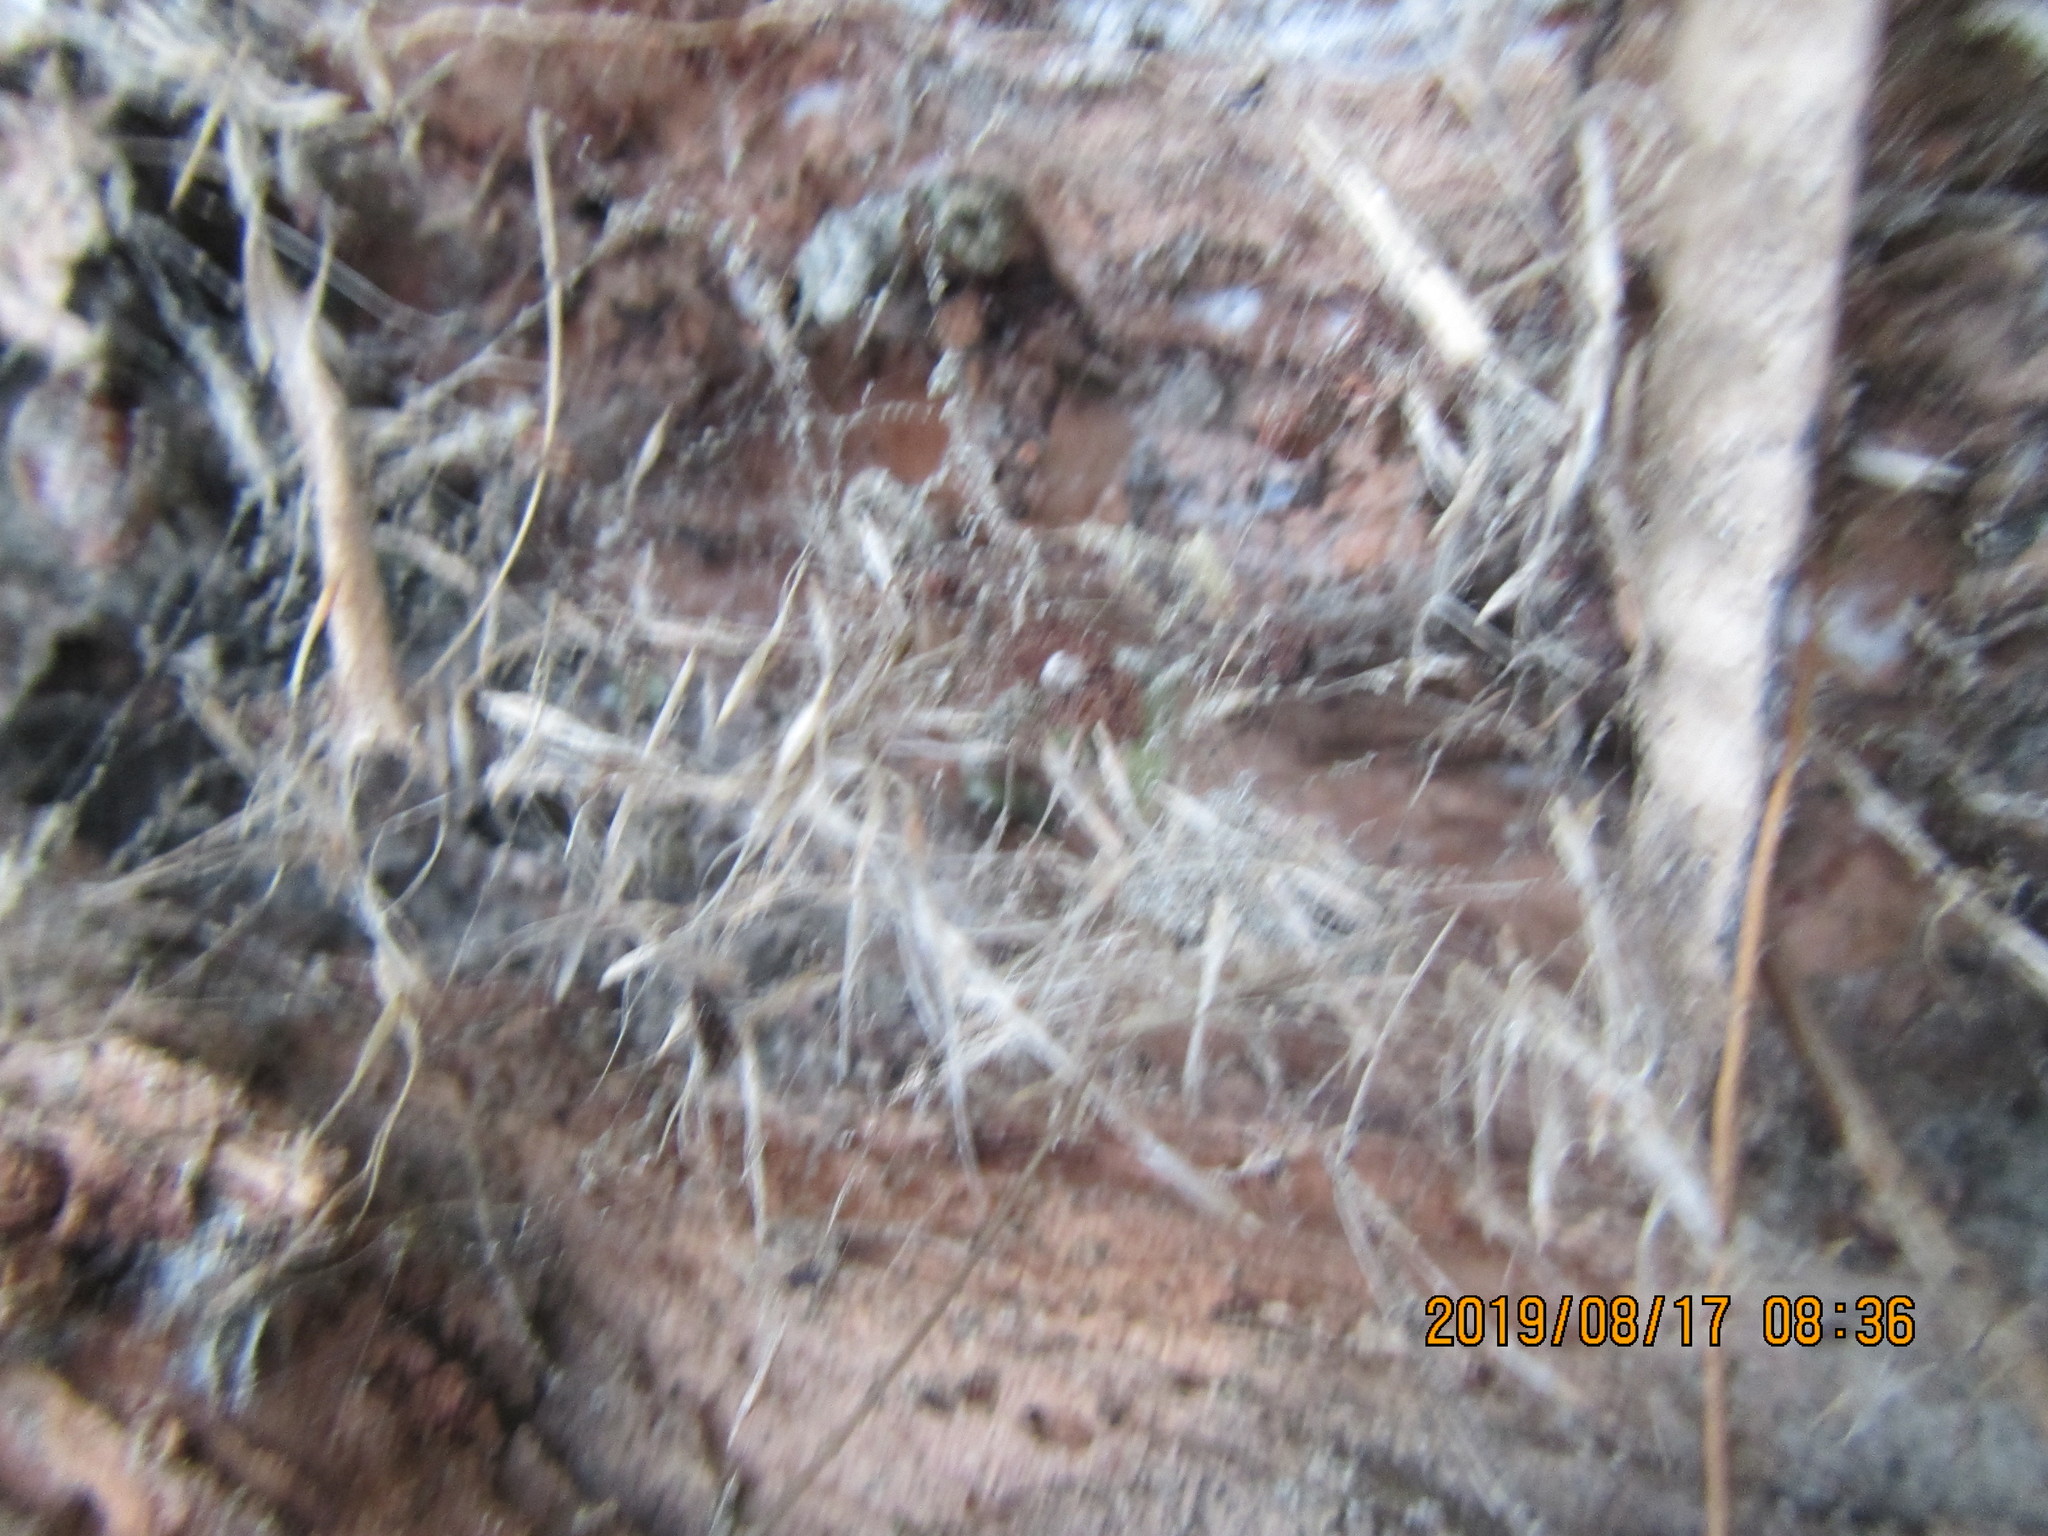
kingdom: Animalia
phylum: Arthropoda
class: Malacostraca
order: Isopoda
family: Porcellionidae
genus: Porcellio
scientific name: Porcellio scaber
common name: Common rough woodlouse
